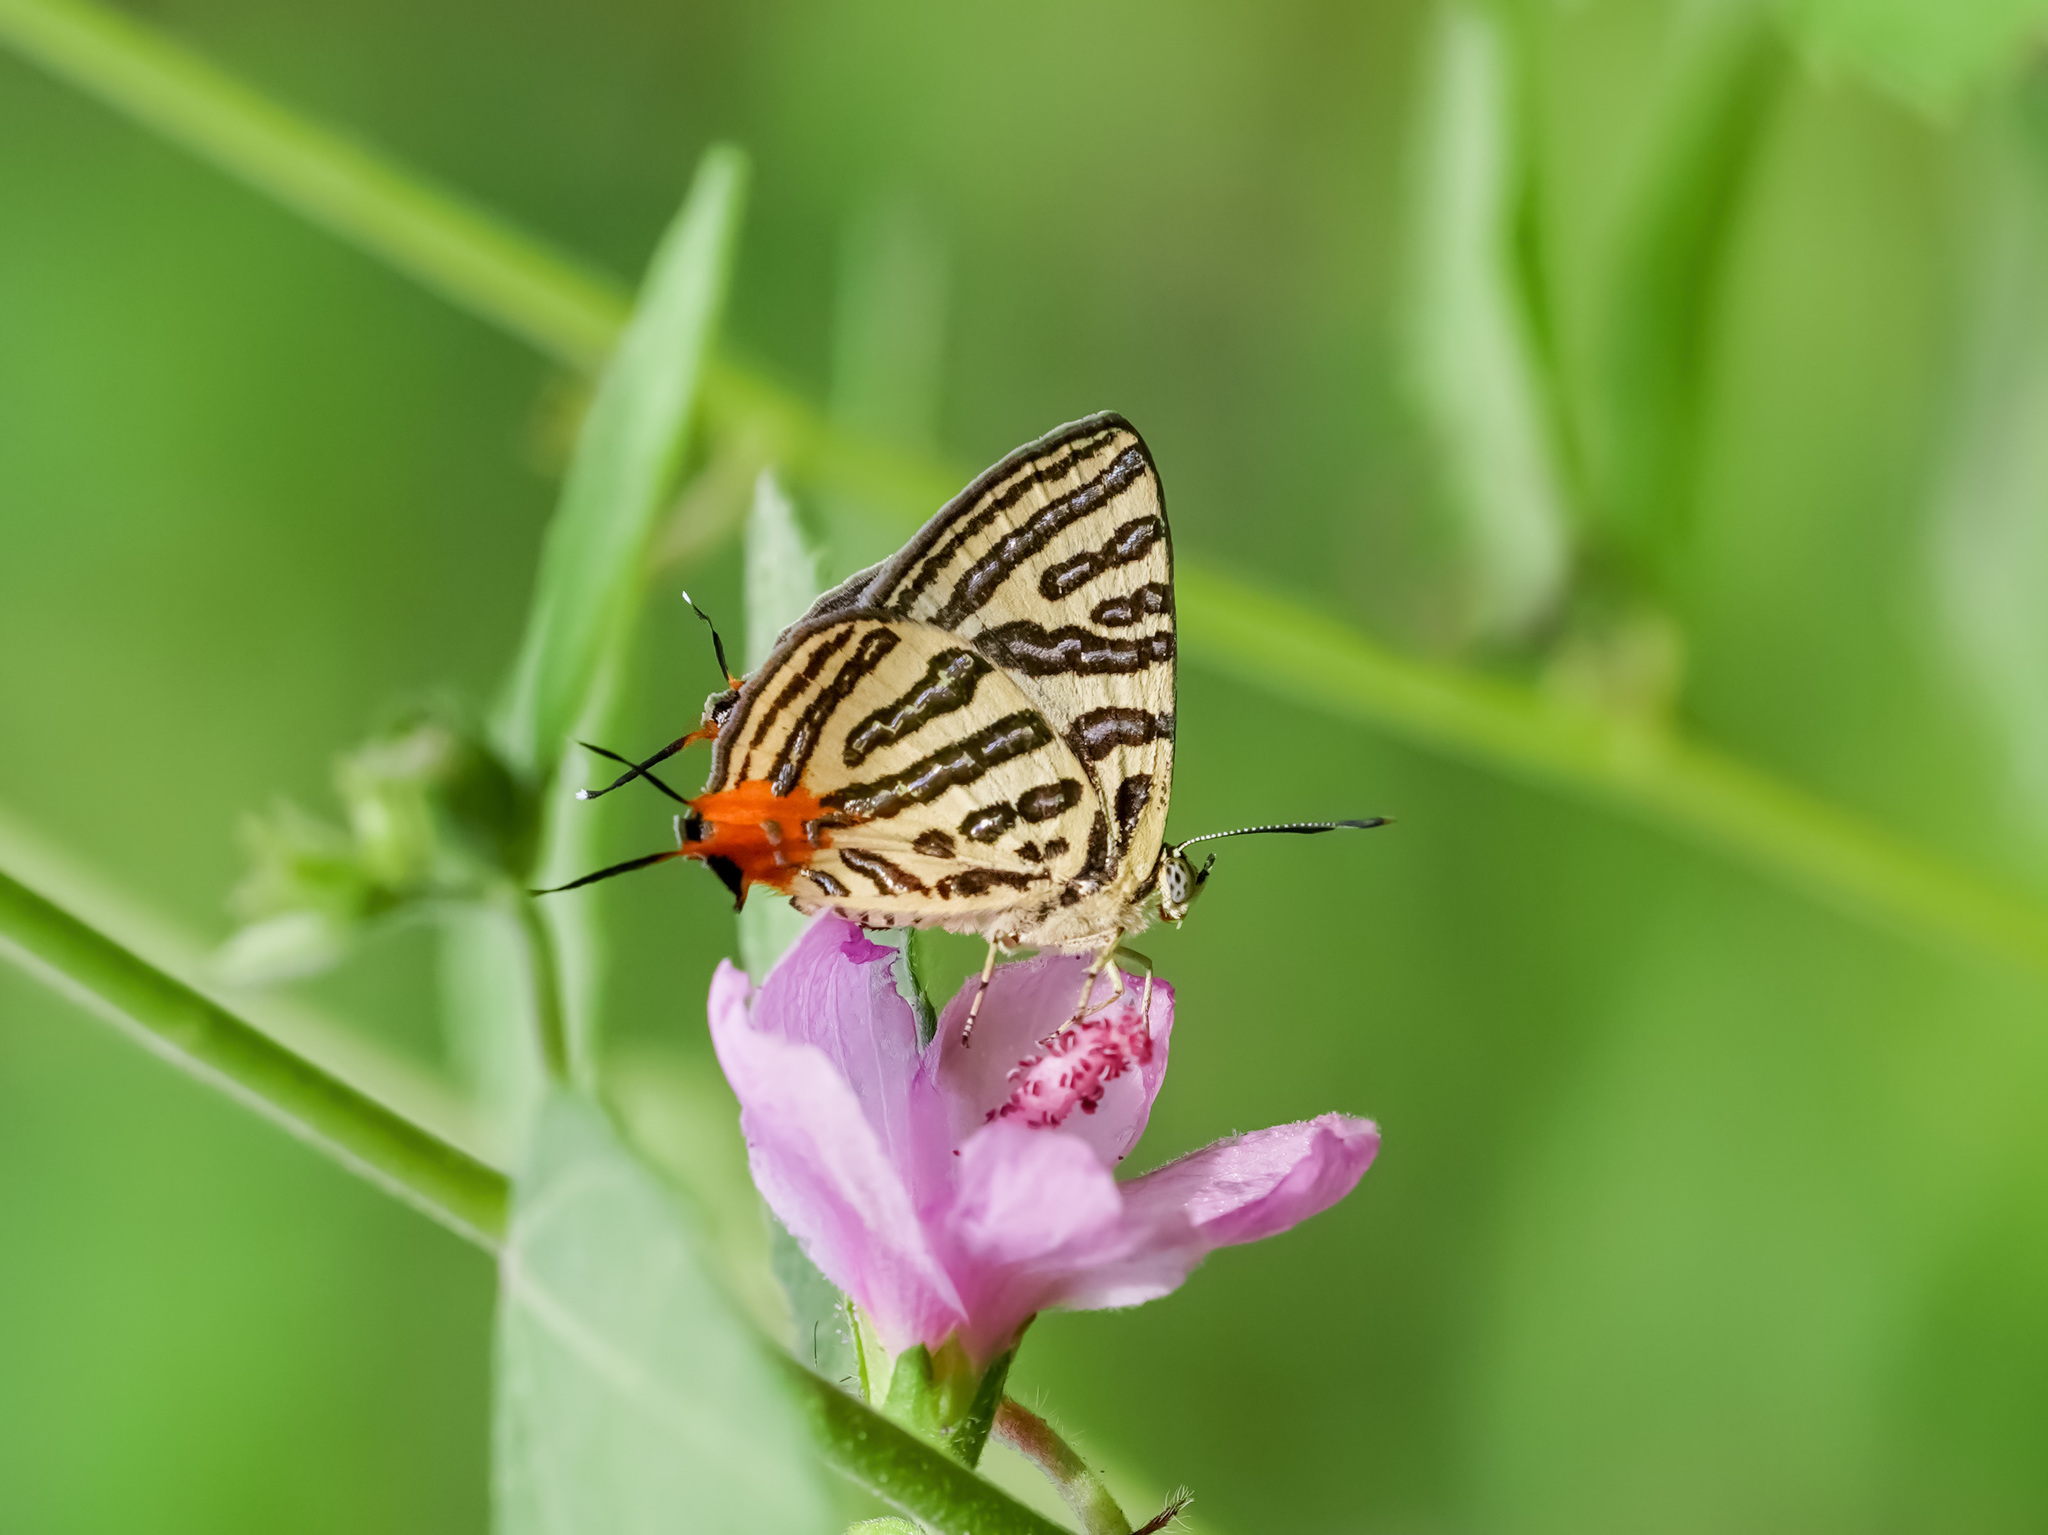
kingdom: Animalia
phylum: Arthropoda
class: Insecta
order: Lepidoptera
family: Lycaenidae
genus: Cigaritis
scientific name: Cigaritis syama
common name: Club silverline
